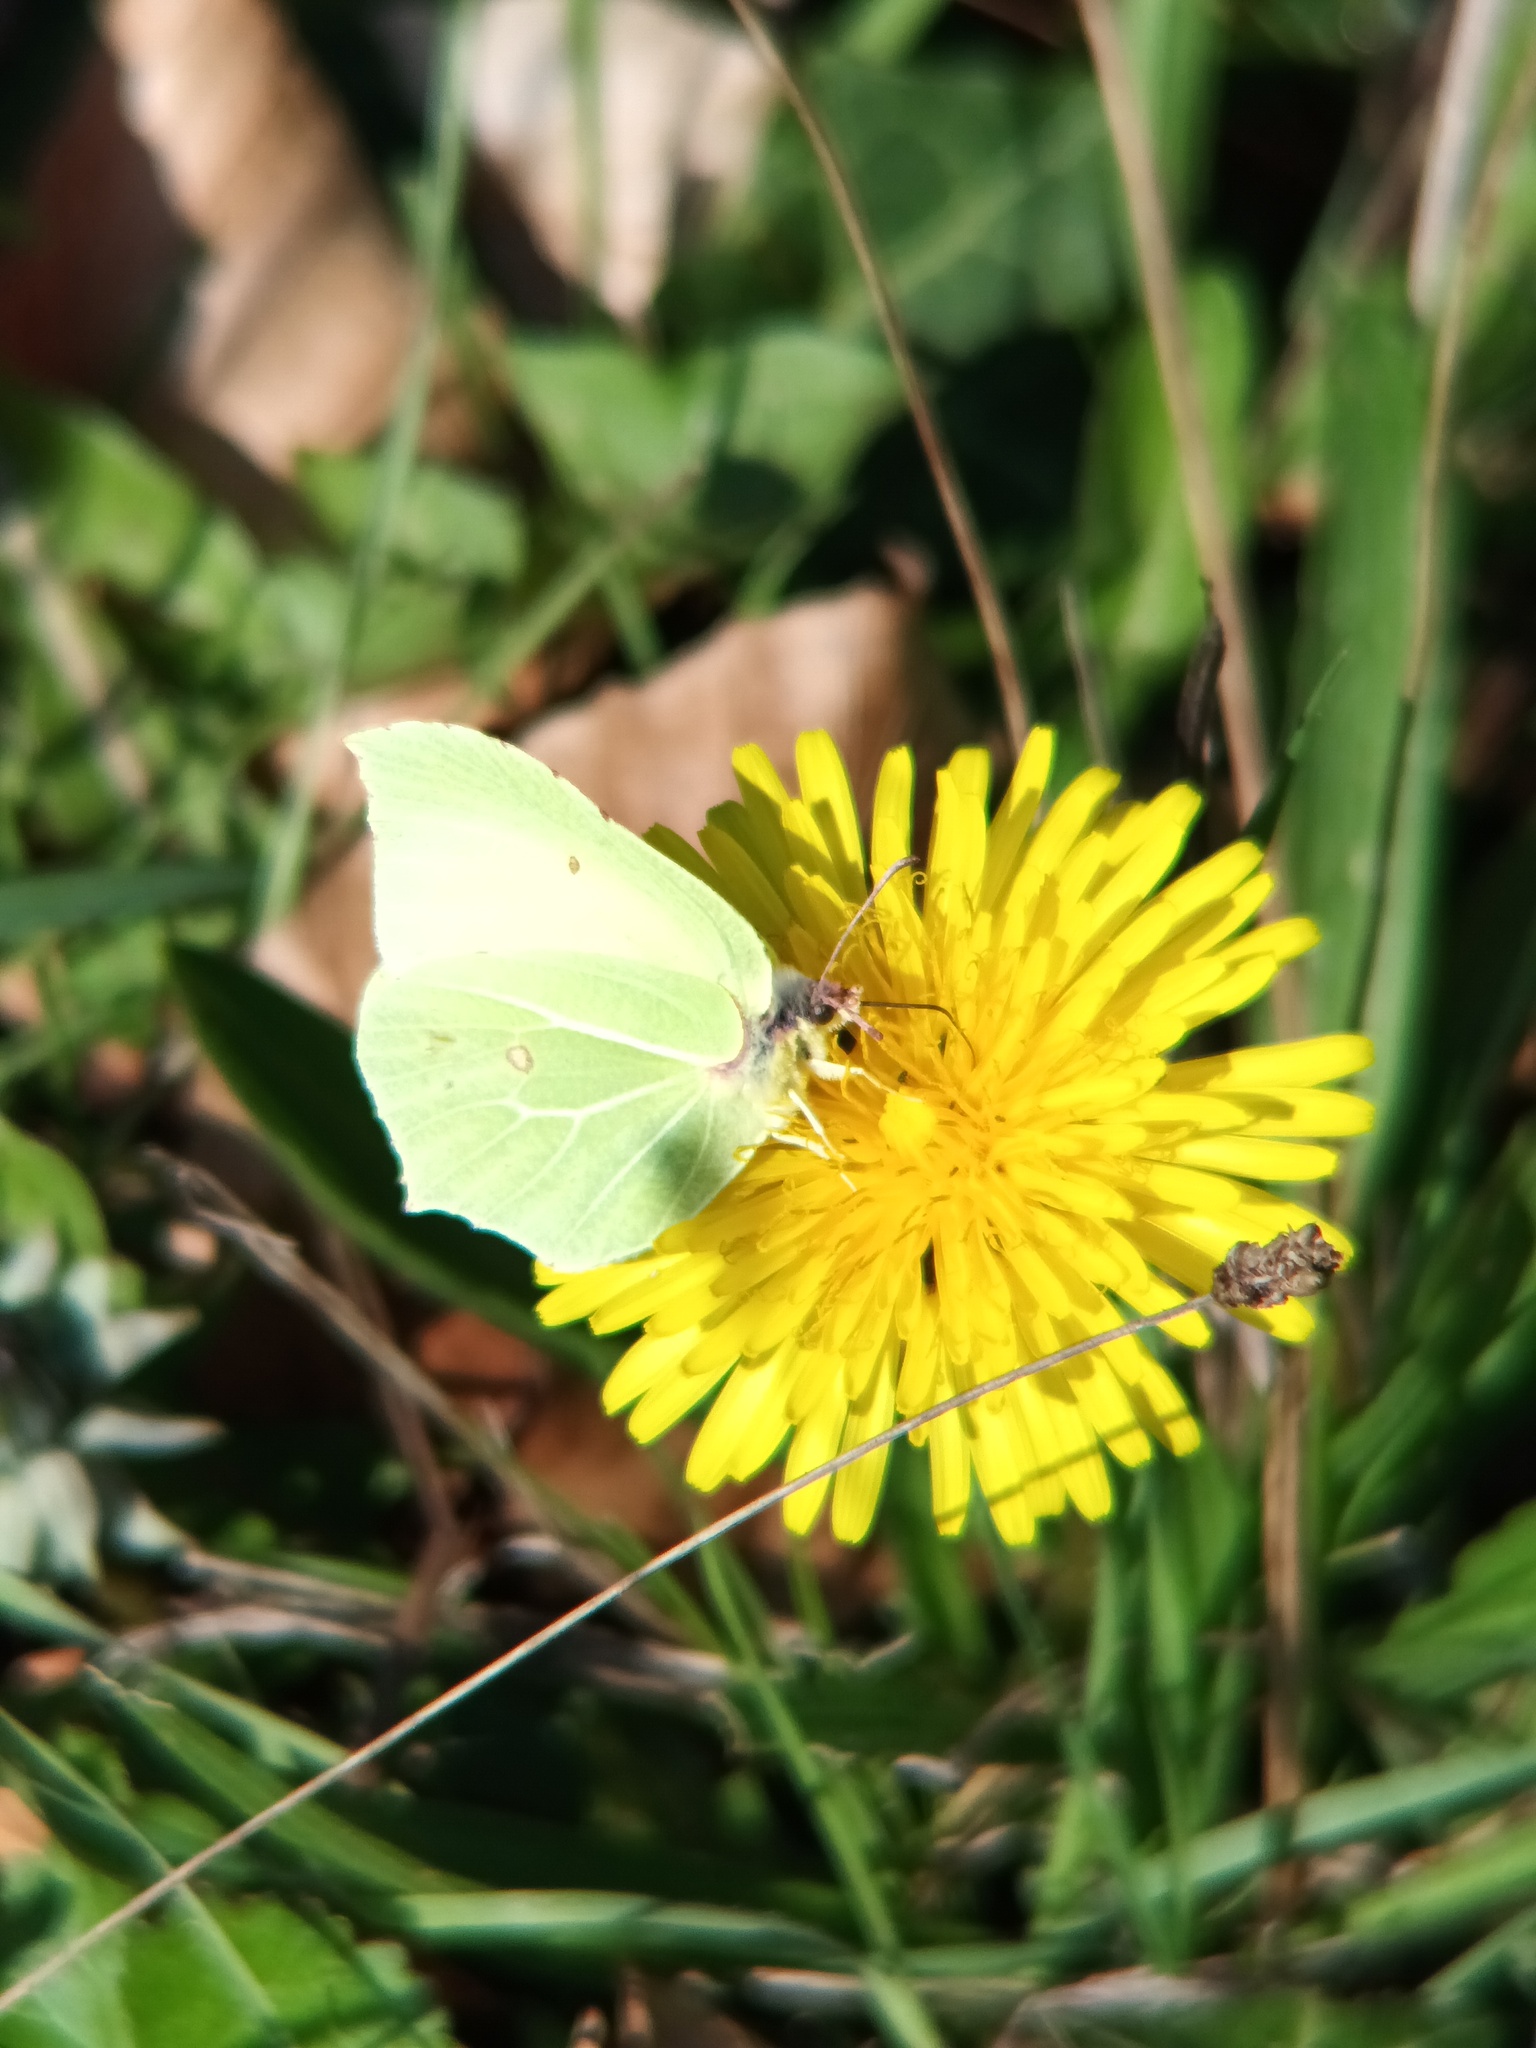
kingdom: Animalia
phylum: Arthropoda
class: Insecta
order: Lepidoptera
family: Pieridae
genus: Gonepteryx
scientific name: Gonepteryx rhamni
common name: Brimstone
